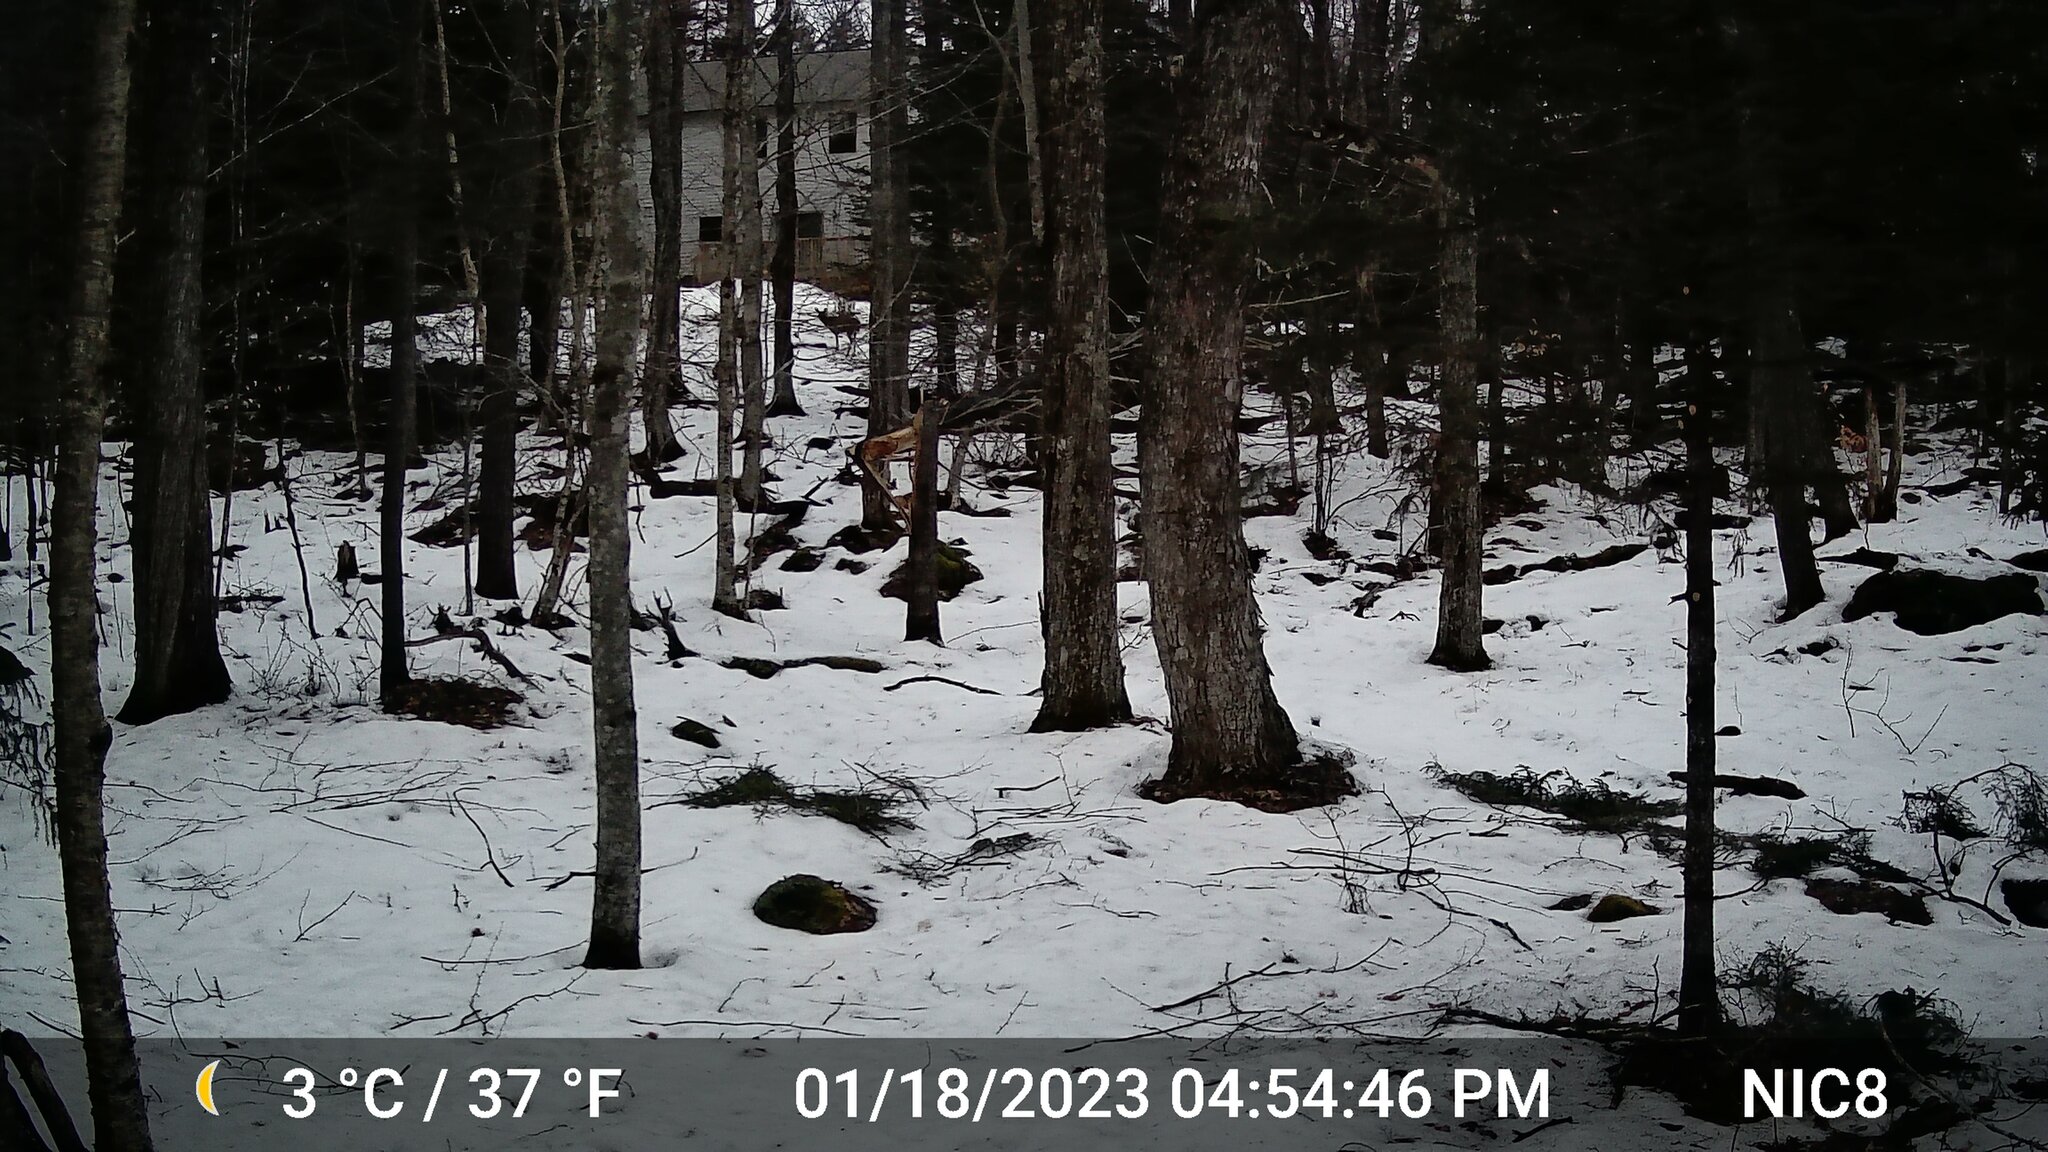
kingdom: Animalia
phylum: Chordata
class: Mammalia
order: Artiodactyla
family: Cervidae
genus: Odocoileus
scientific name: Odocoileus virginianus
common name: White-tailed deer
